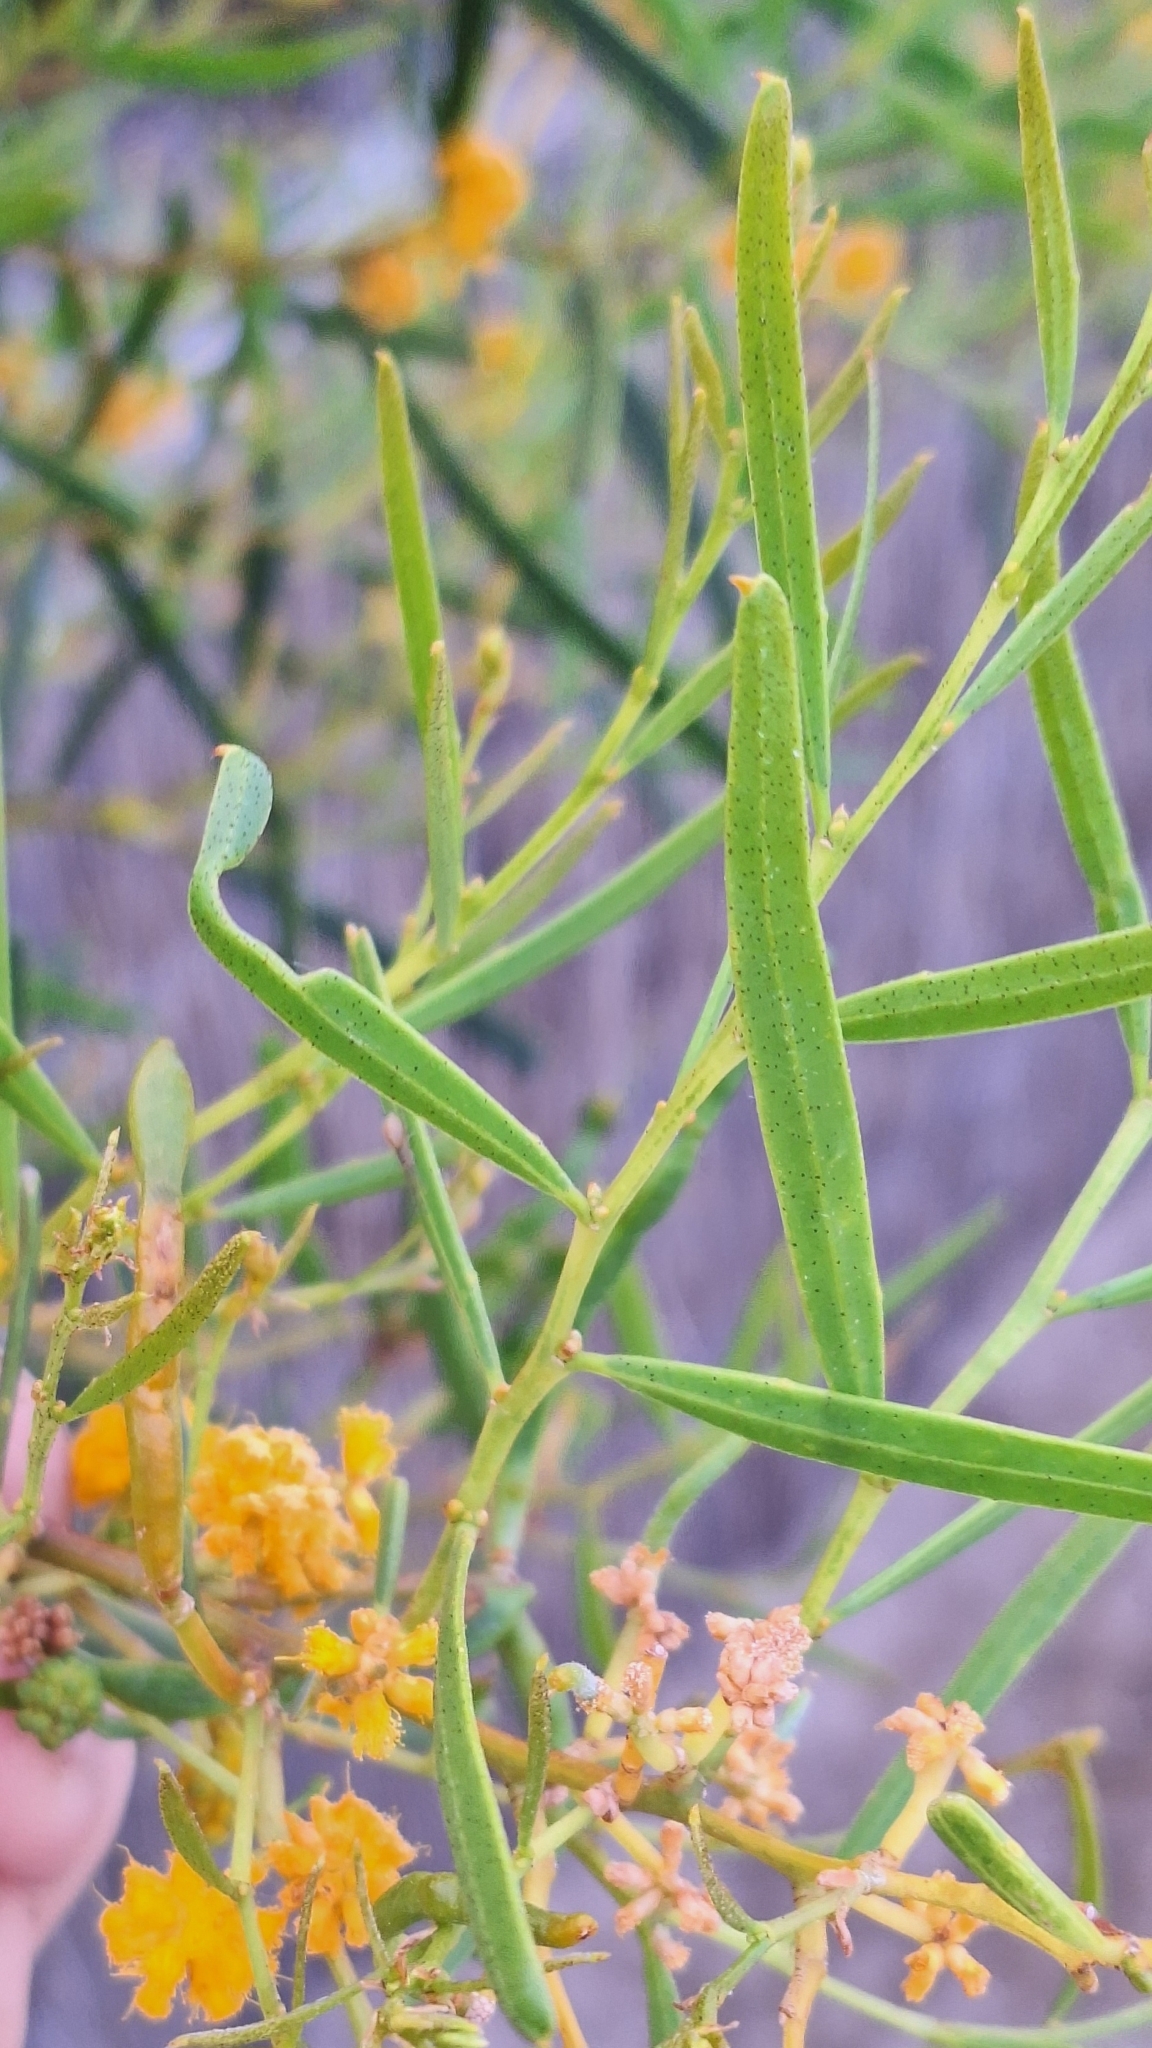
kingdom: Plantae
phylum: Tracheophyta
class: Magnoliopsida
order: Fabales
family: Fabaceae
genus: Acacia
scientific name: Acacia ligulata
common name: Dune wattle
